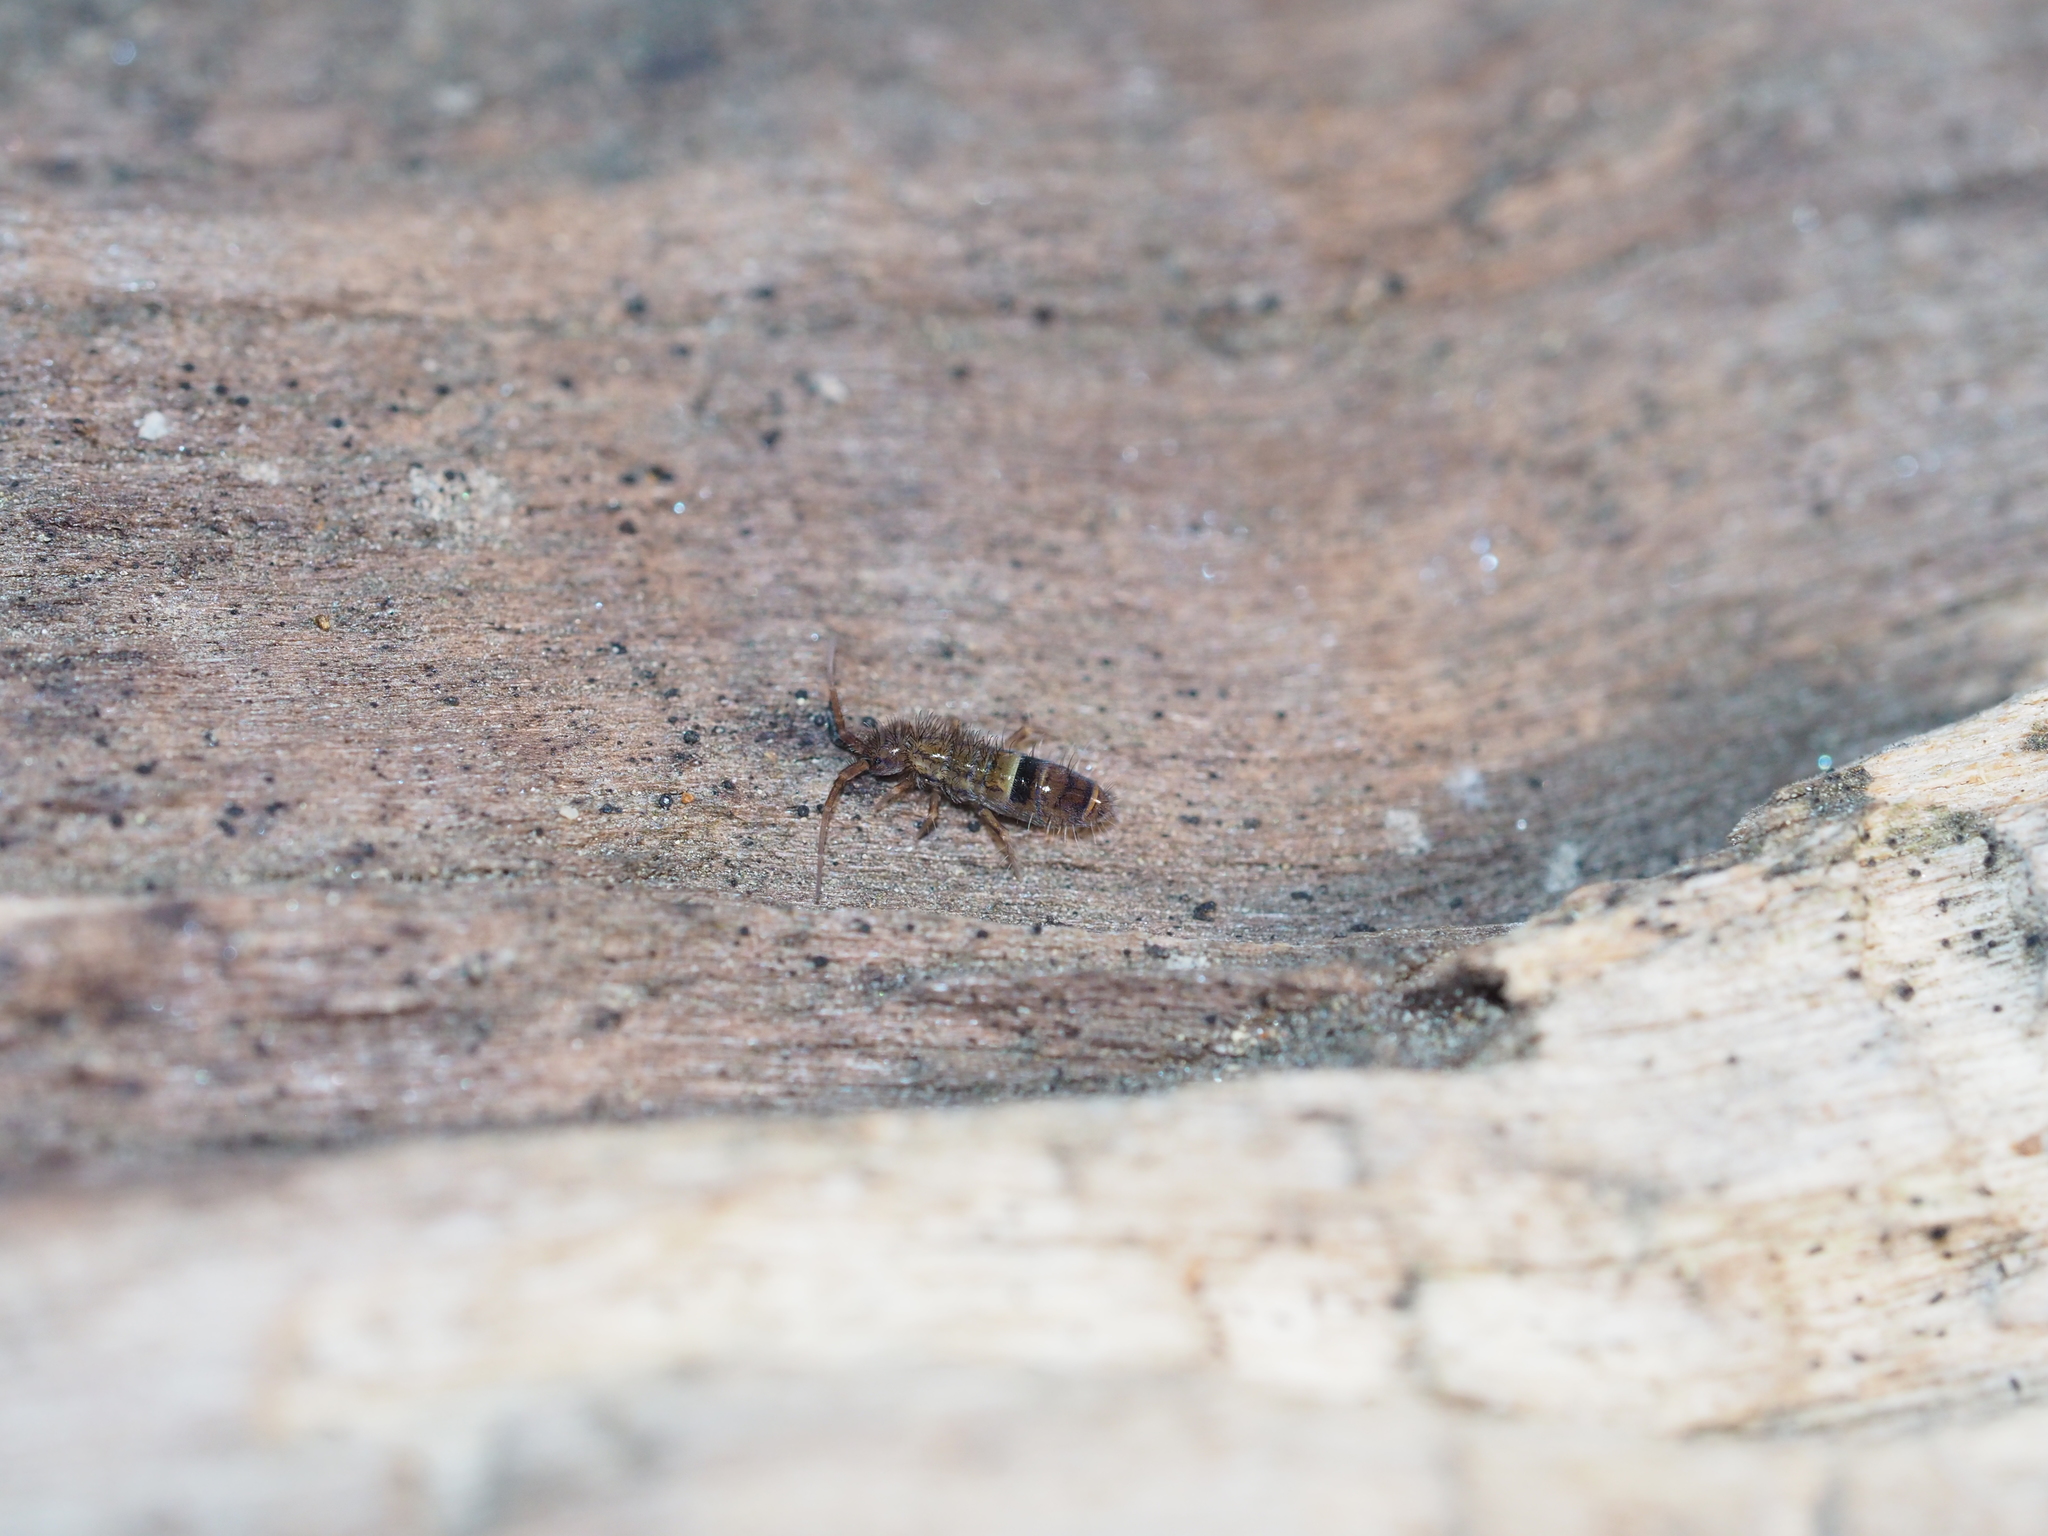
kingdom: Animalia
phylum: Arthropoda
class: Collembola
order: Entomobryomorpha
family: Orchesellidae
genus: Orchesella
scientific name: Orchesella cincta
